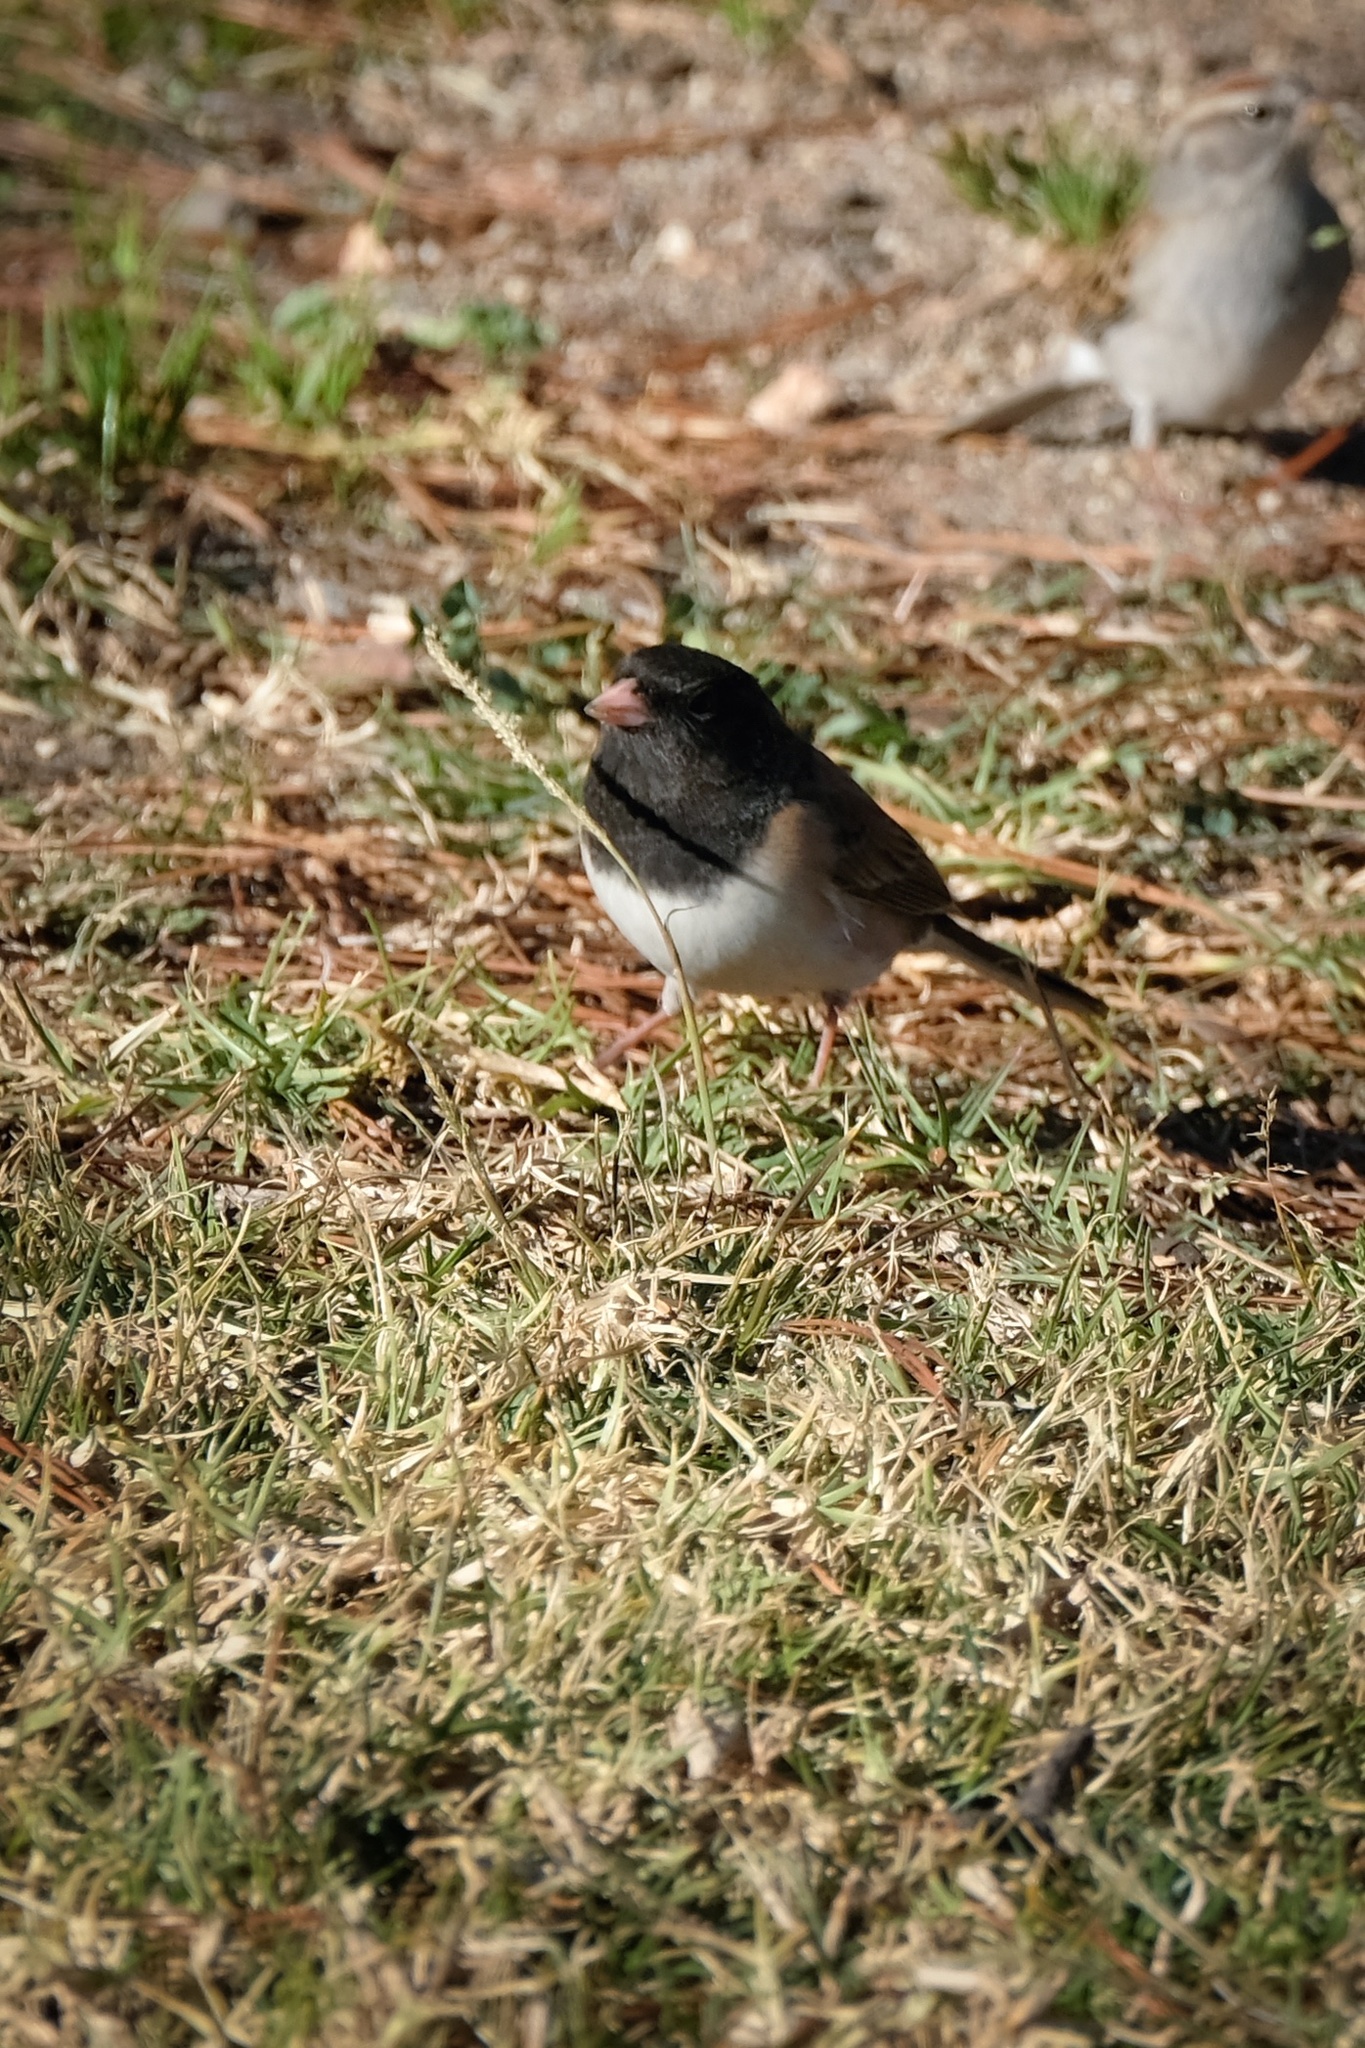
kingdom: Animalia
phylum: Chordata
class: Aves
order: Passeriformes
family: Passerellidae
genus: Junco
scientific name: Junco hyemalis
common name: Dark-eyed junco
